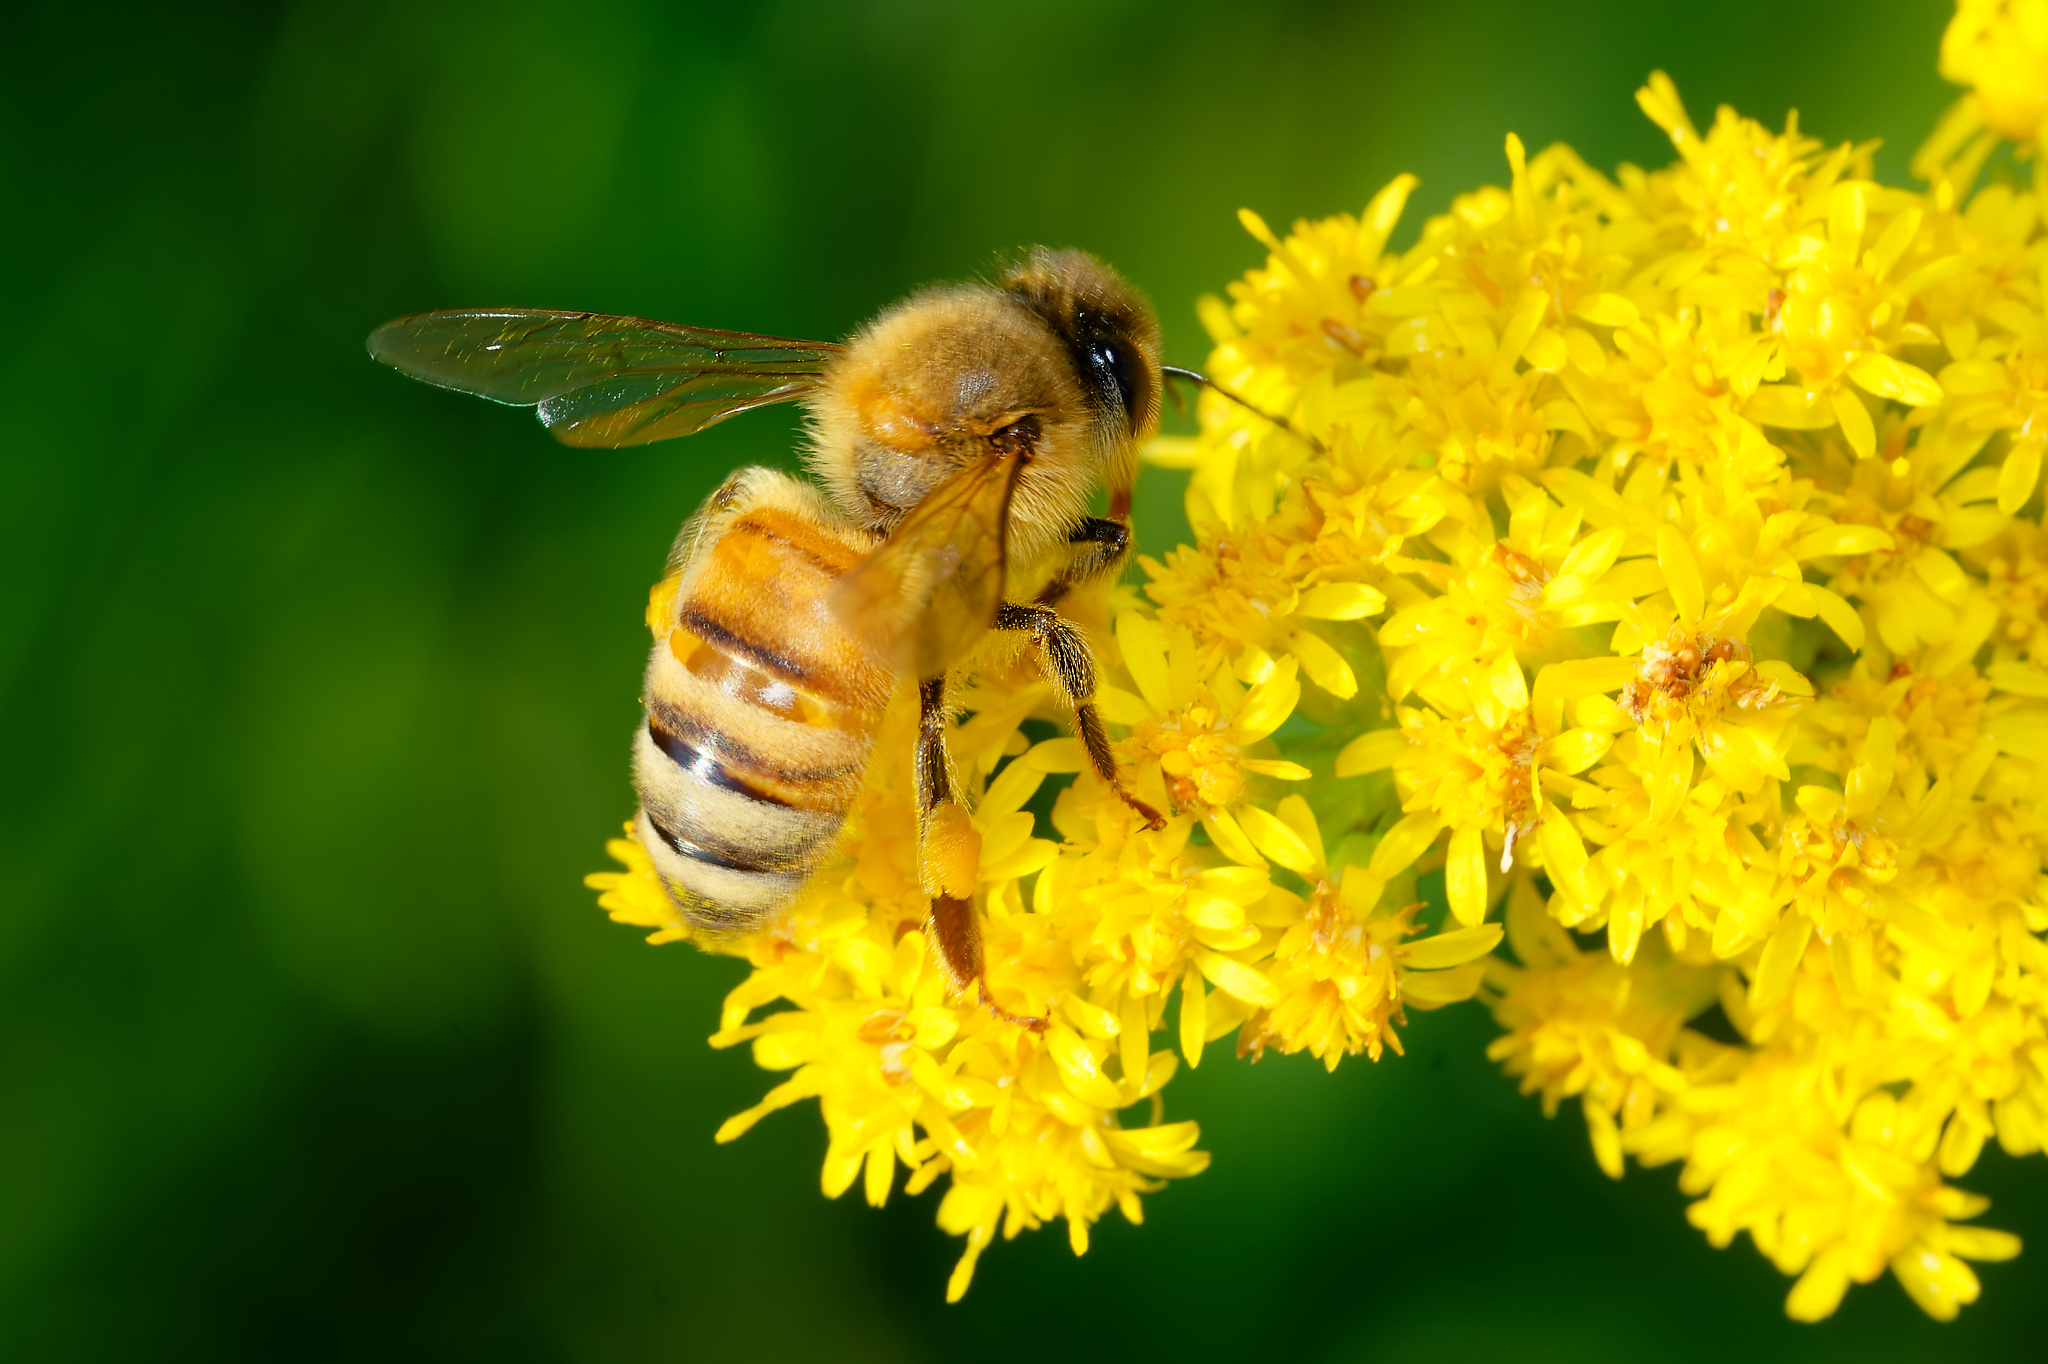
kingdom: Animalia
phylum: Arthropoda
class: Insecta
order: Hymenoptera
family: Apidae
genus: Apis
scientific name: Apis mellifera
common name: Honey bee
